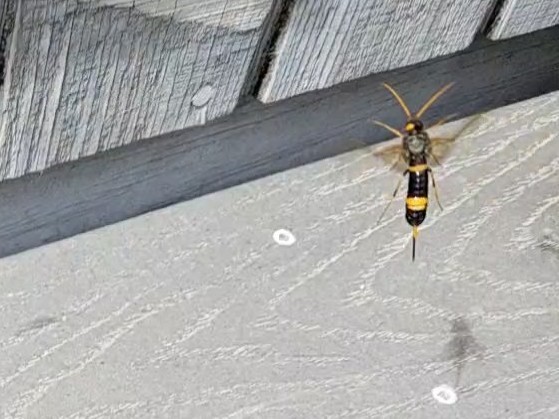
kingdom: Animalia
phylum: Arthropoda
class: Insecta
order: Hymenoptera
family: Siricidae
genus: Urocerus
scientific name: Urocerus flavicornis
